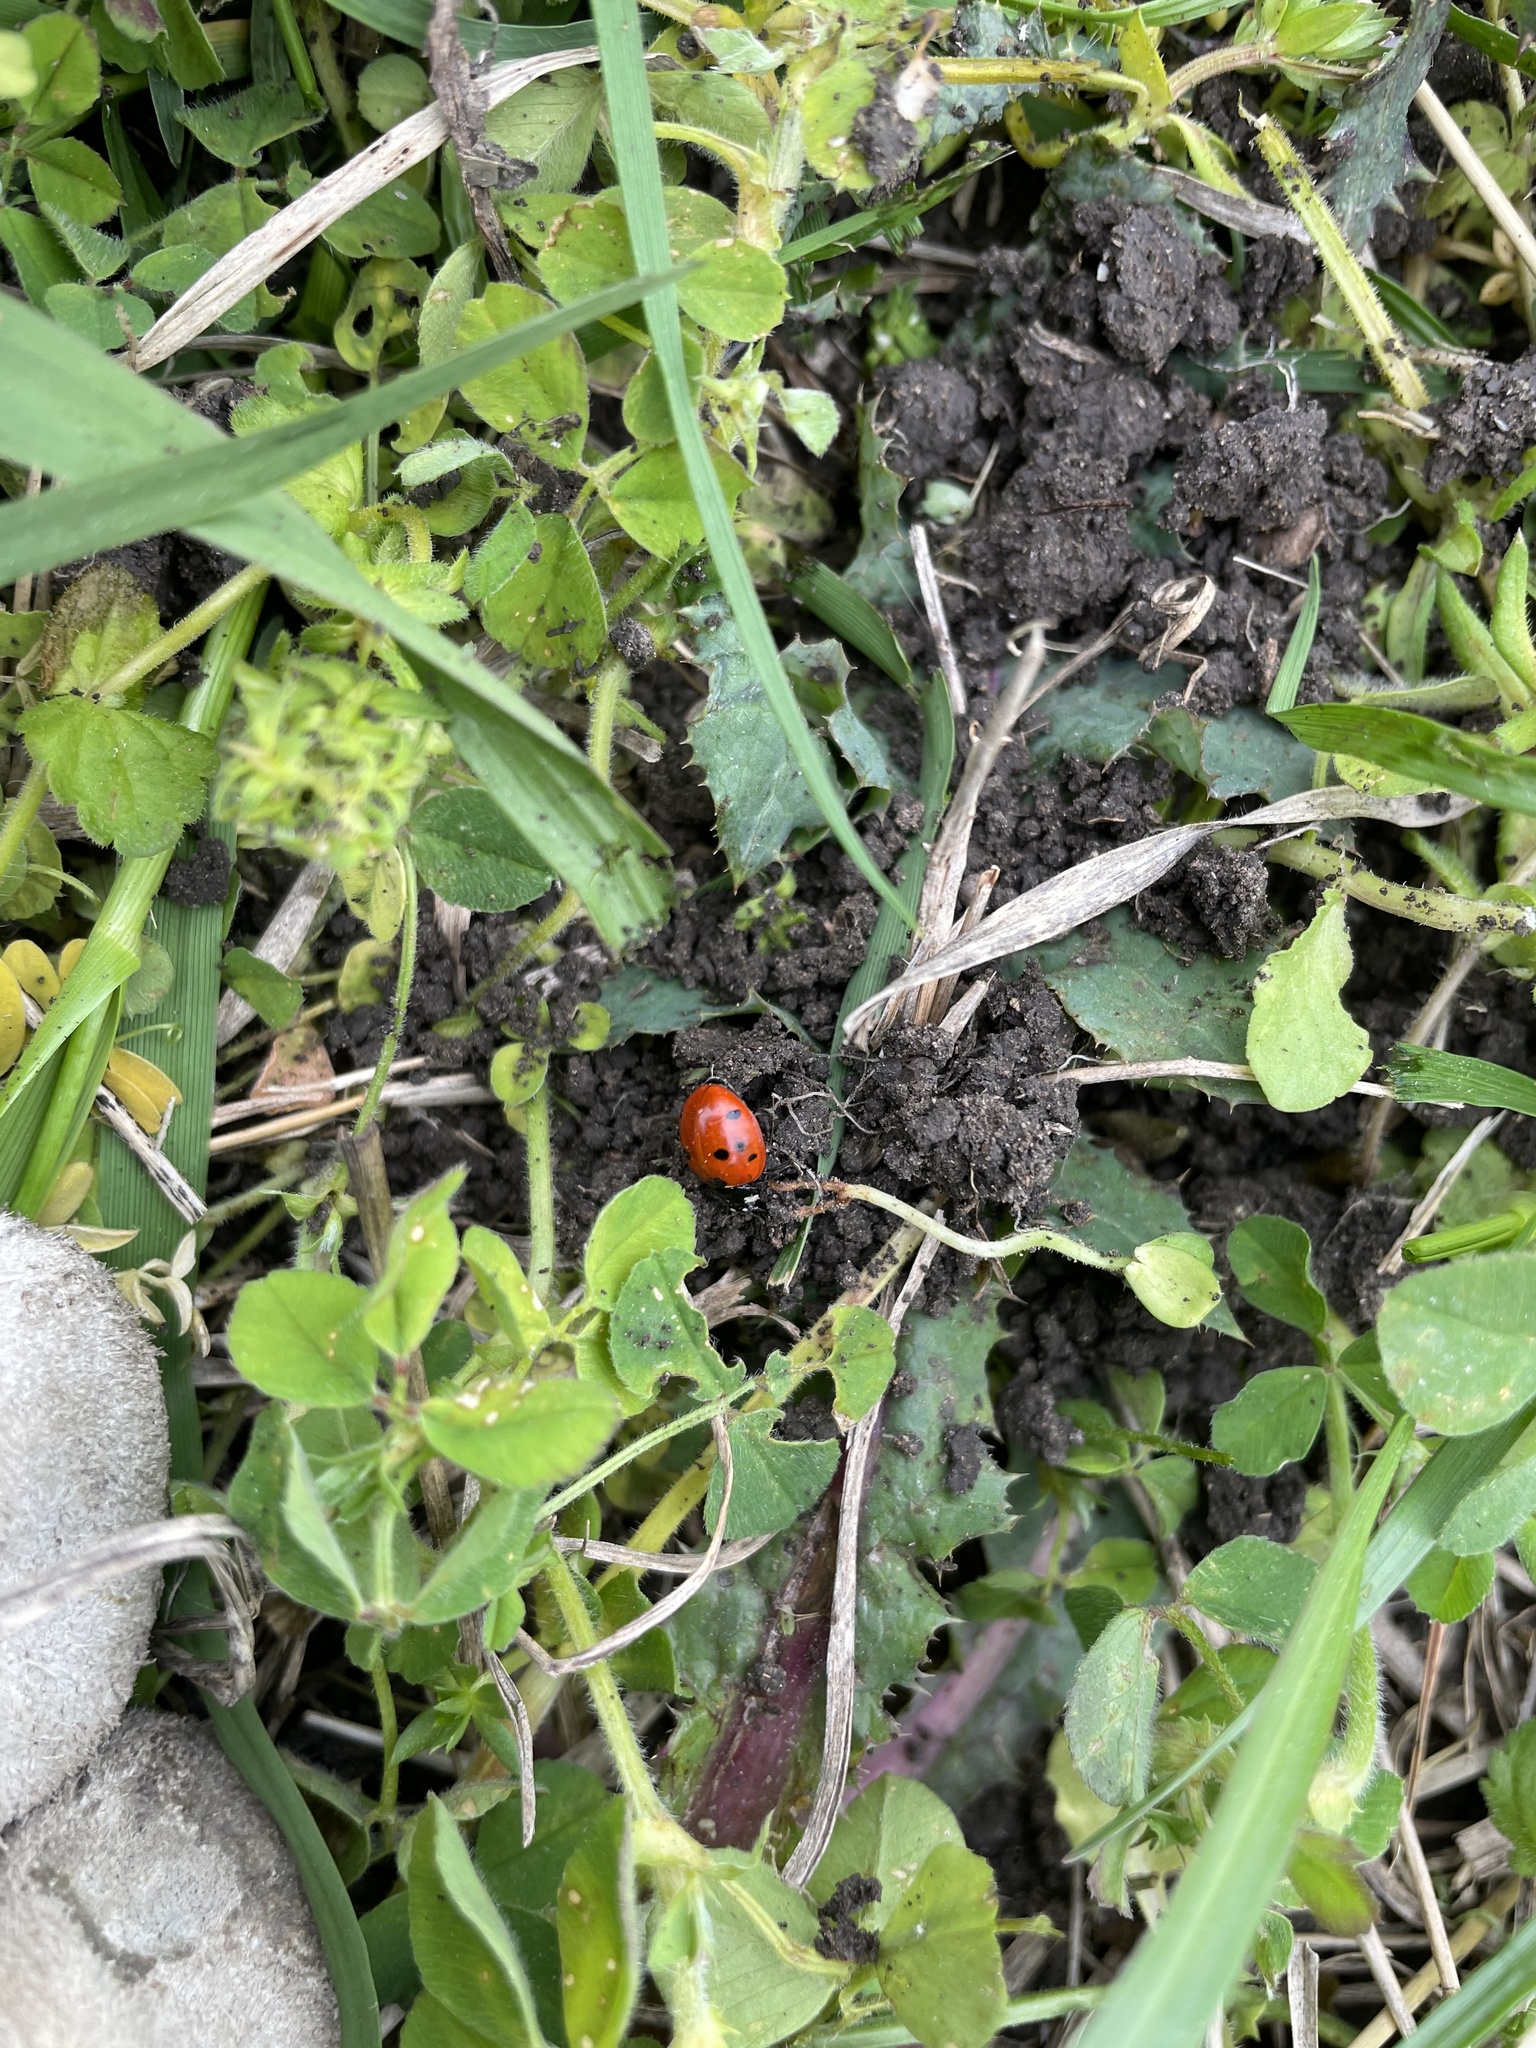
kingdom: Animalia
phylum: Arthropoda
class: Insecta
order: Coleoptera
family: Coccinellidae
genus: Coccinella
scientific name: Coccinella septempunctata
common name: Sevenspotted lady beetle
